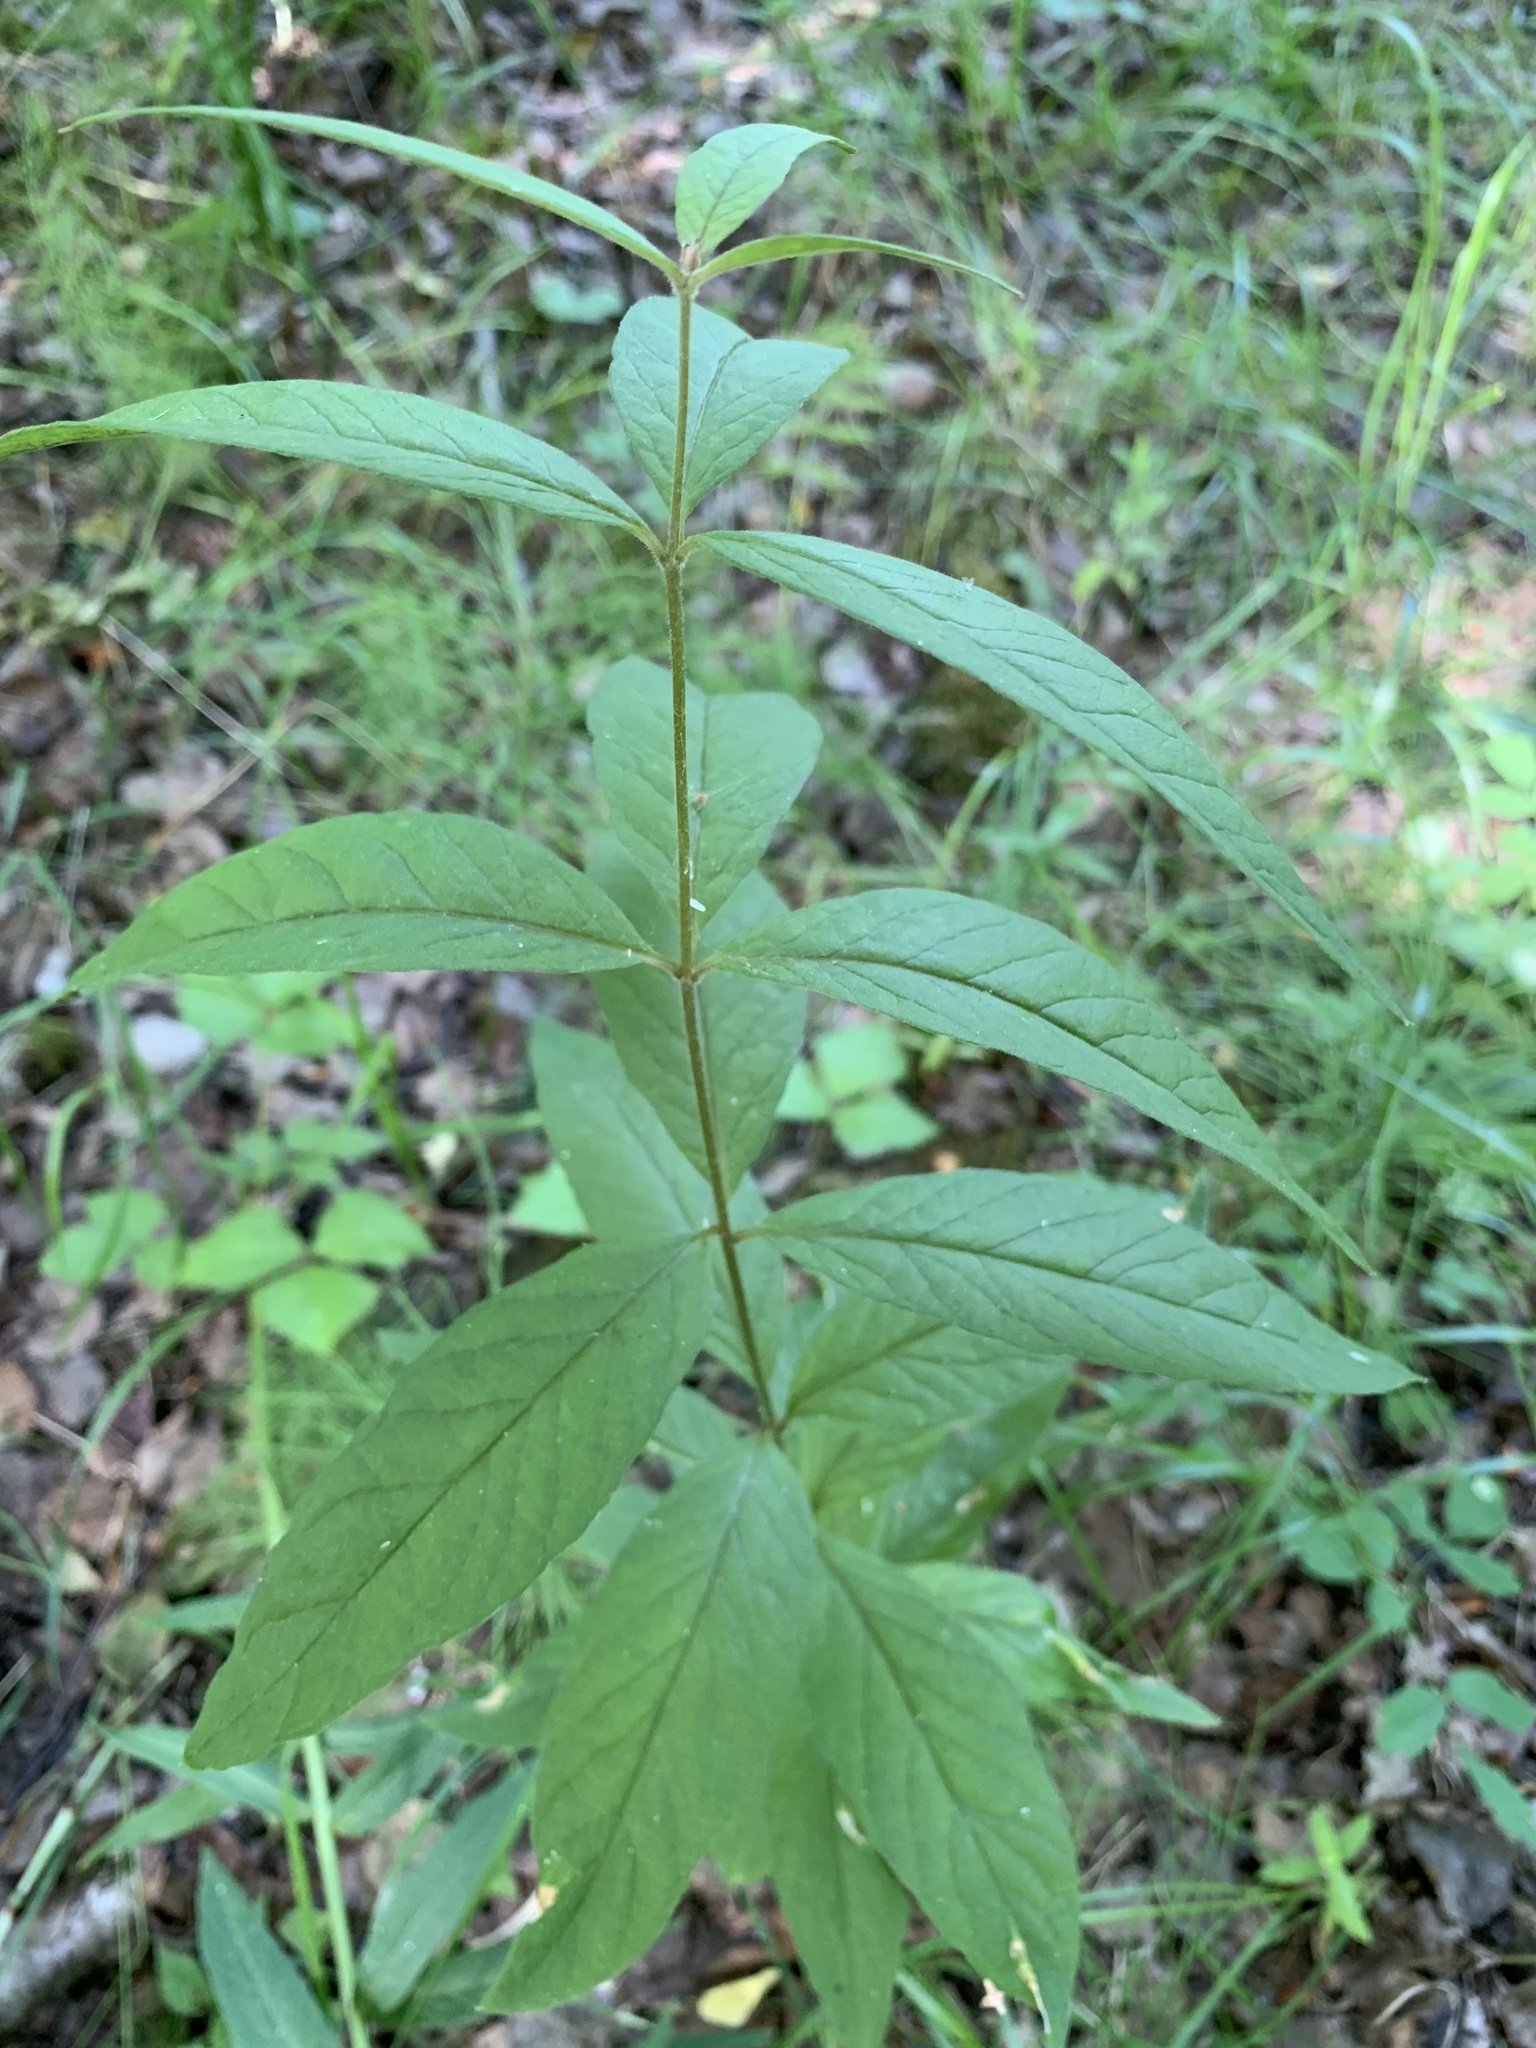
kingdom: Plantae
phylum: Tracheophyta
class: Magnoliopsida
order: Ericales
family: Primulaceae
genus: Lysimachia
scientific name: Lysimachia vulgaris
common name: Yellow loosestrife
